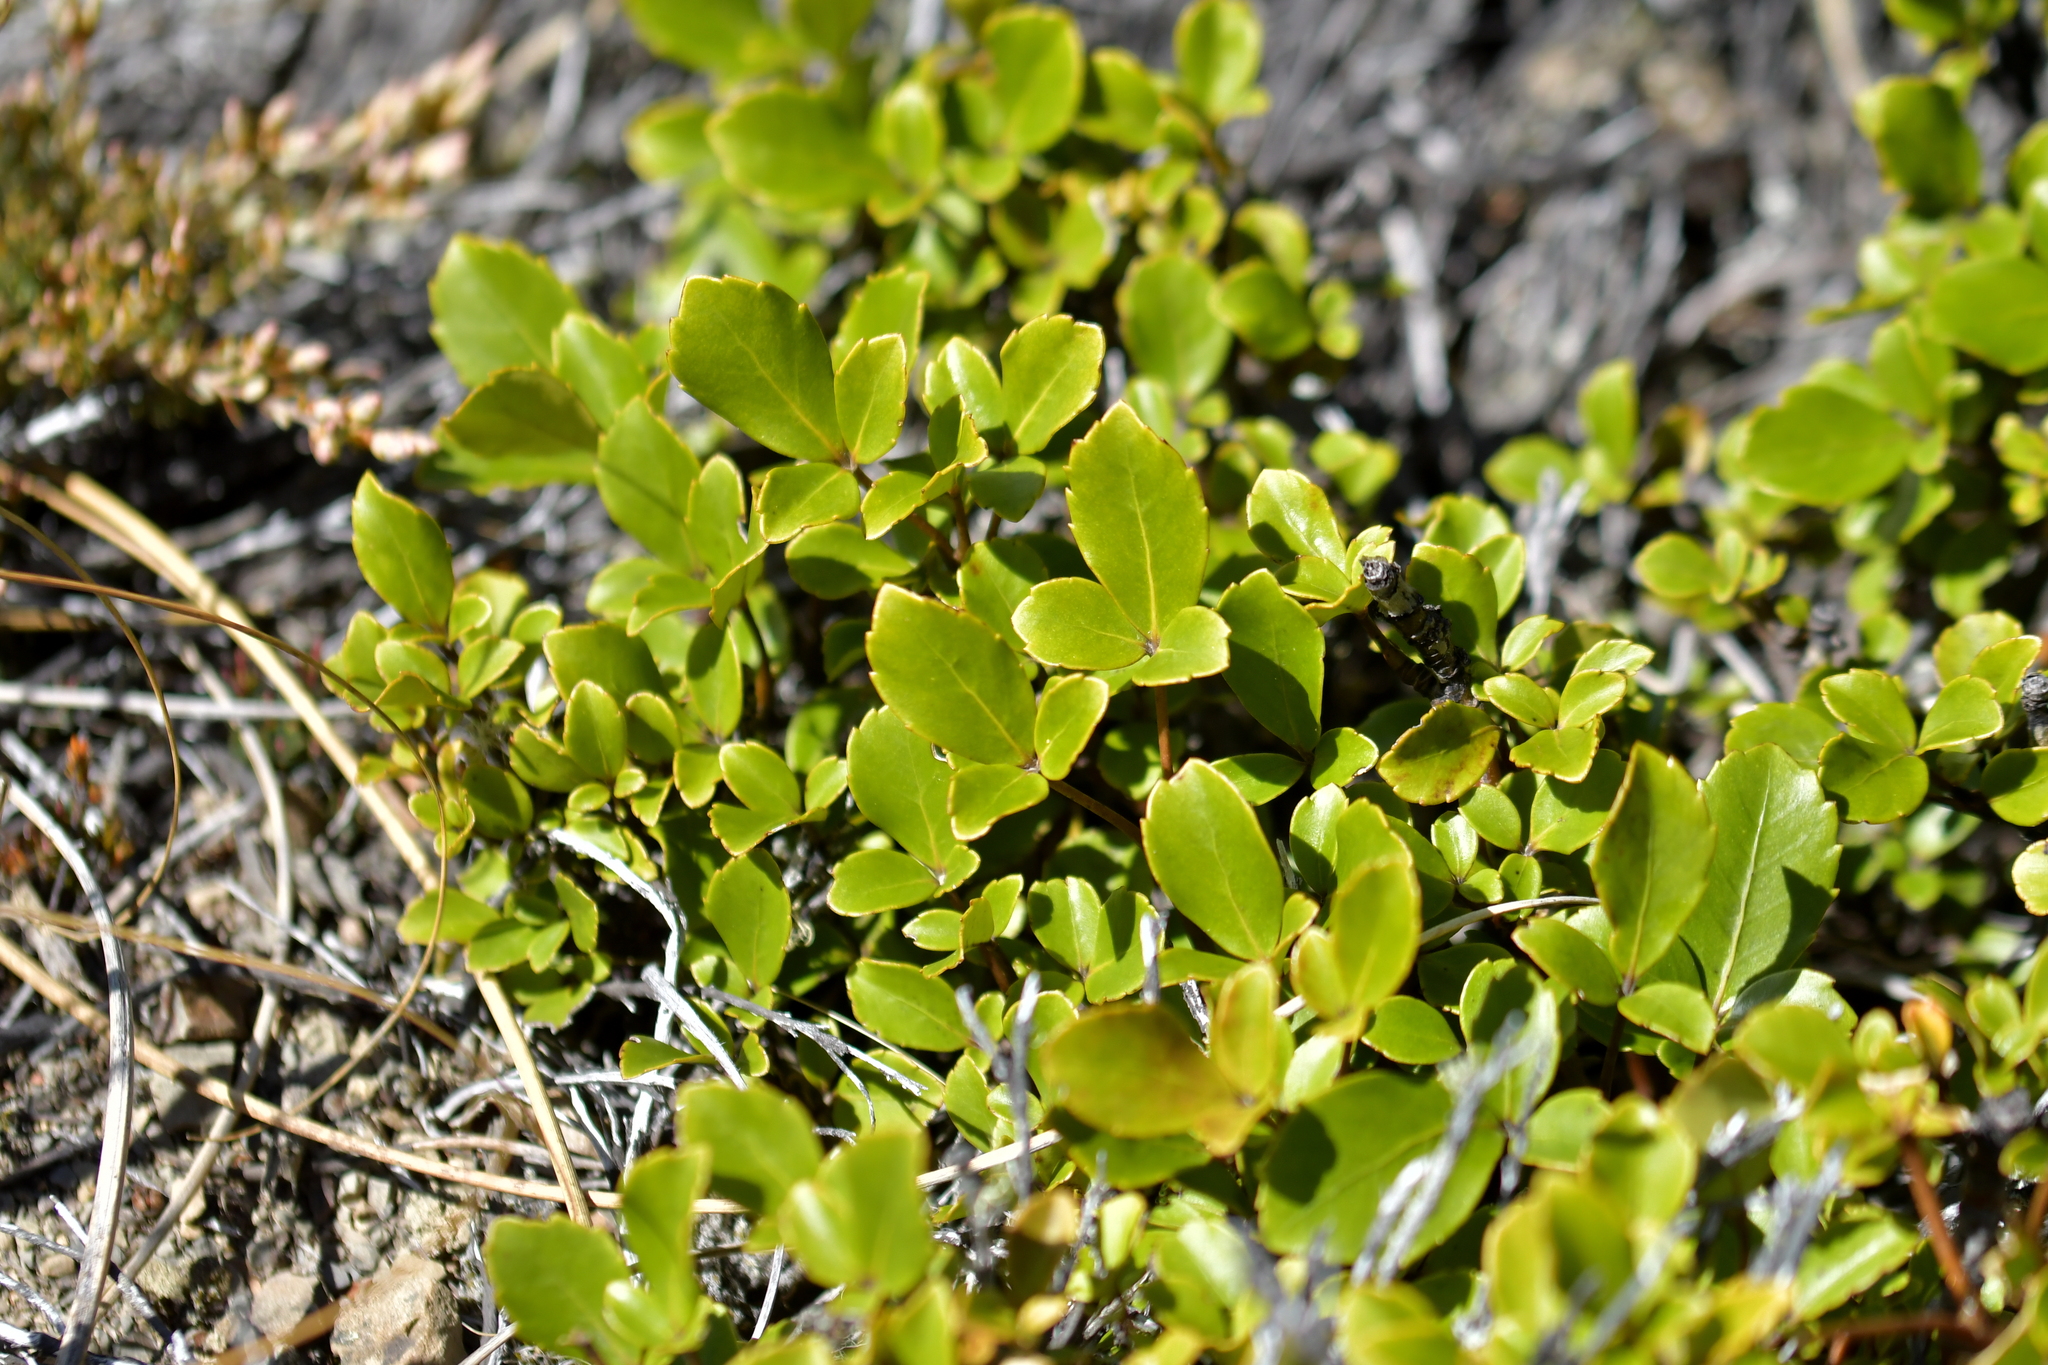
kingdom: Plantae
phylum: Tracheophyta
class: Magnoliopsida
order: Apiales
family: Araliaceae
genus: Neopanax
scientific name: Neopanax colensoi
